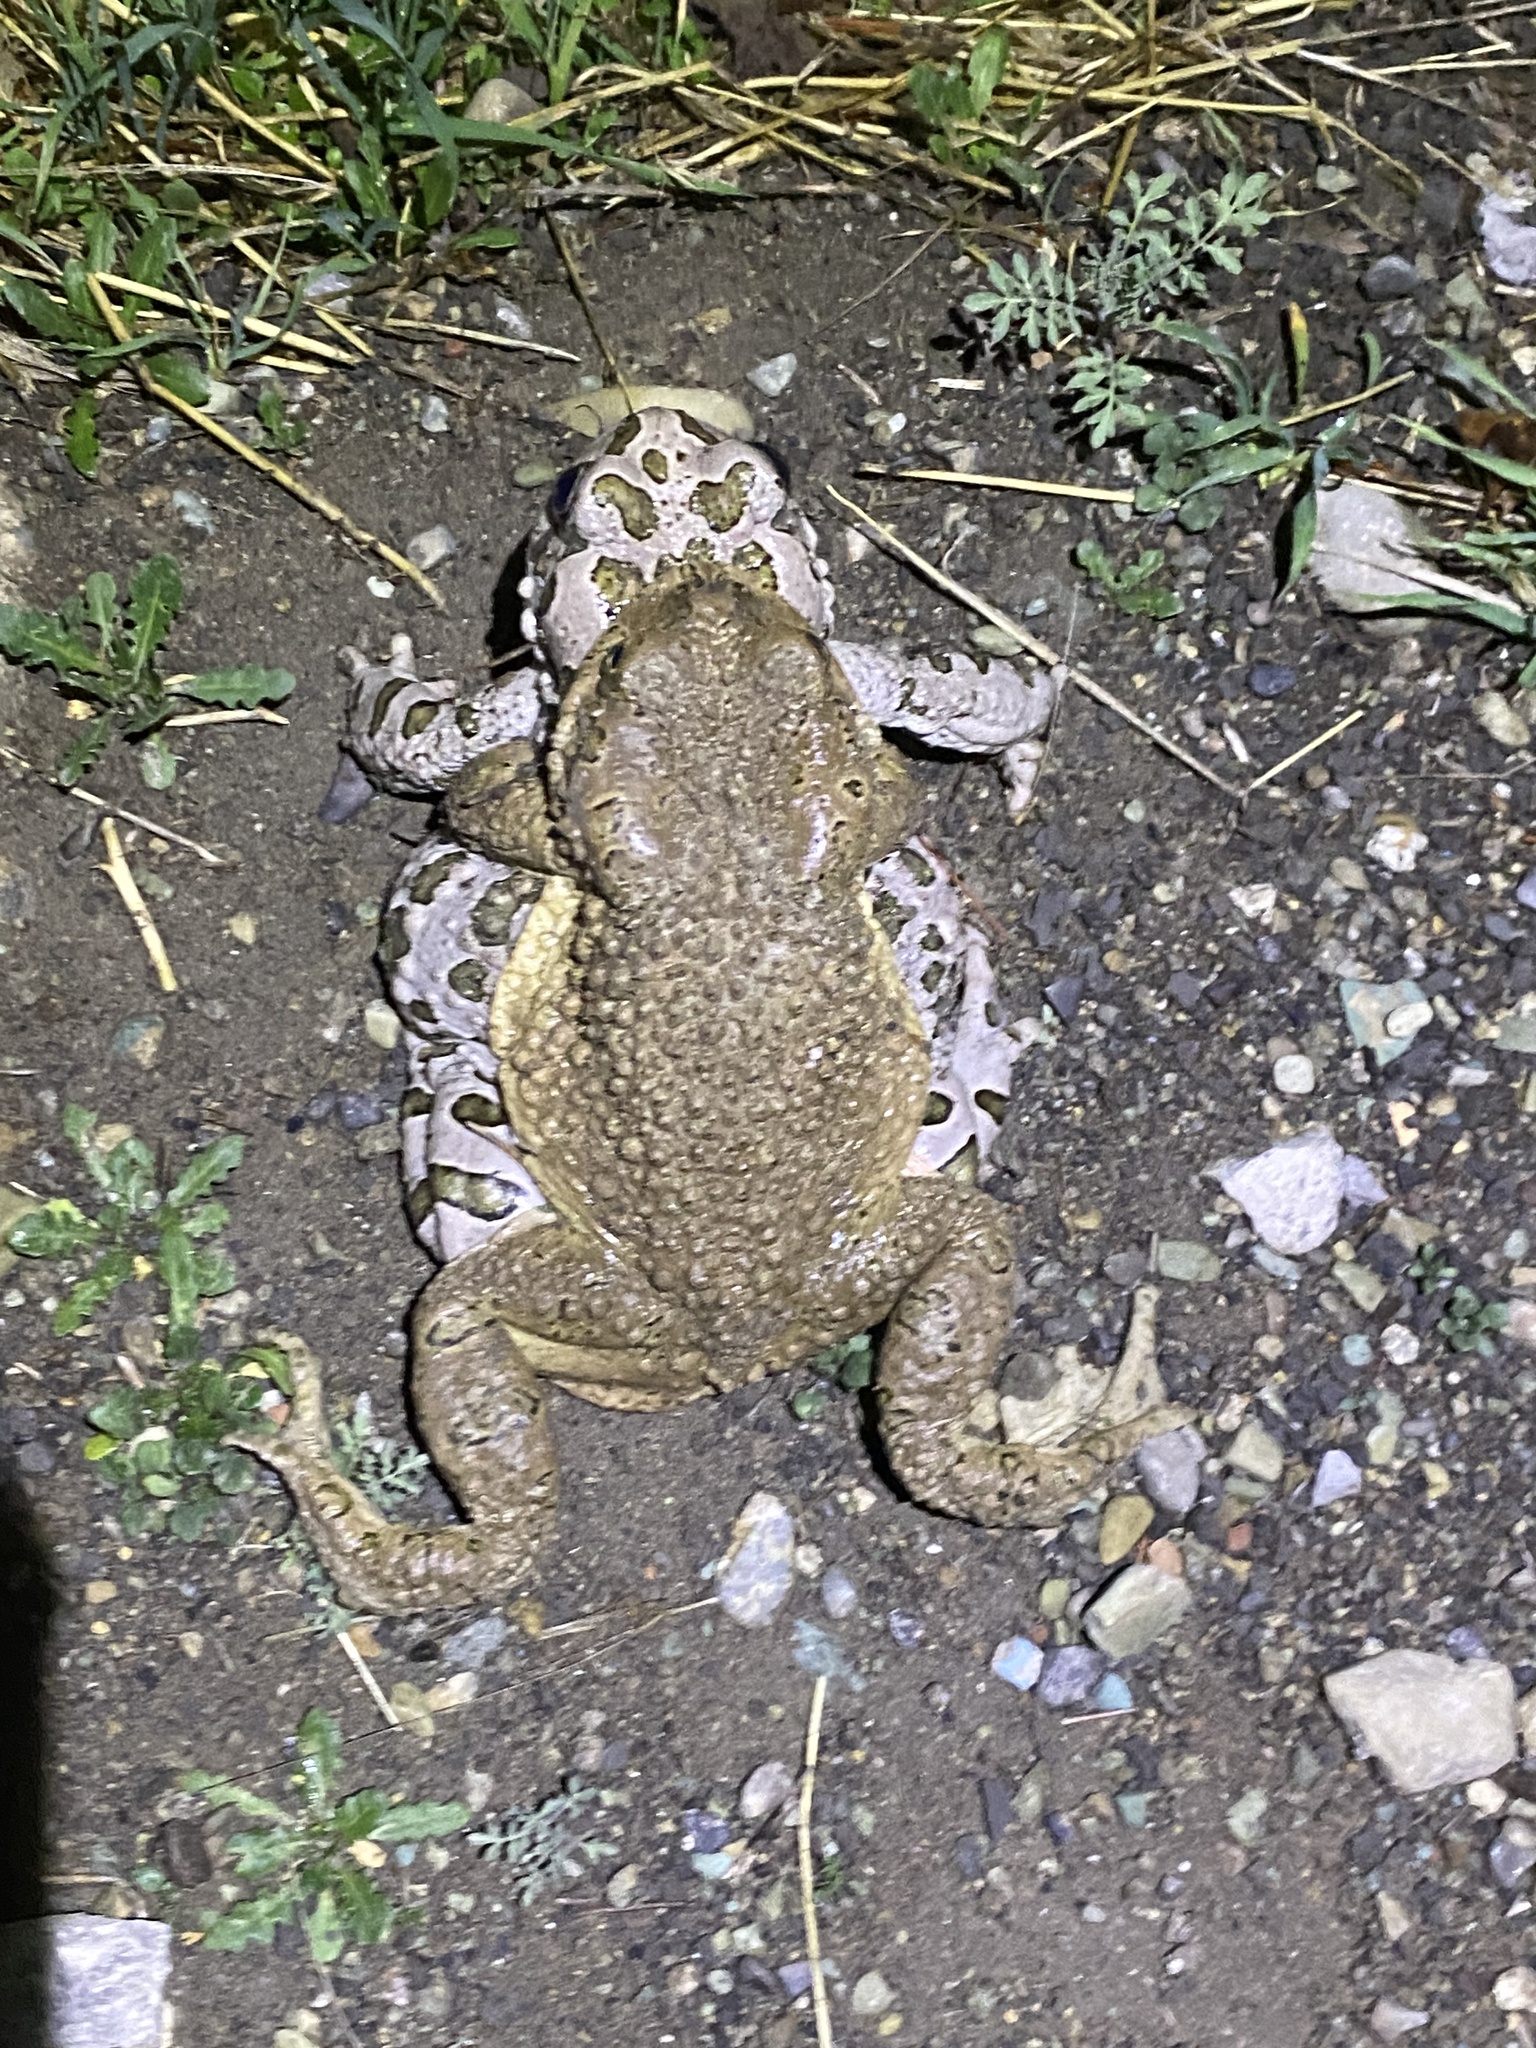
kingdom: Animalia
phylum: Chordata
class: Amphibia
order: Anura
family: Bufonidae
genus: Bufotes
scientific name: Bufotes viridis
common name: European green toad
